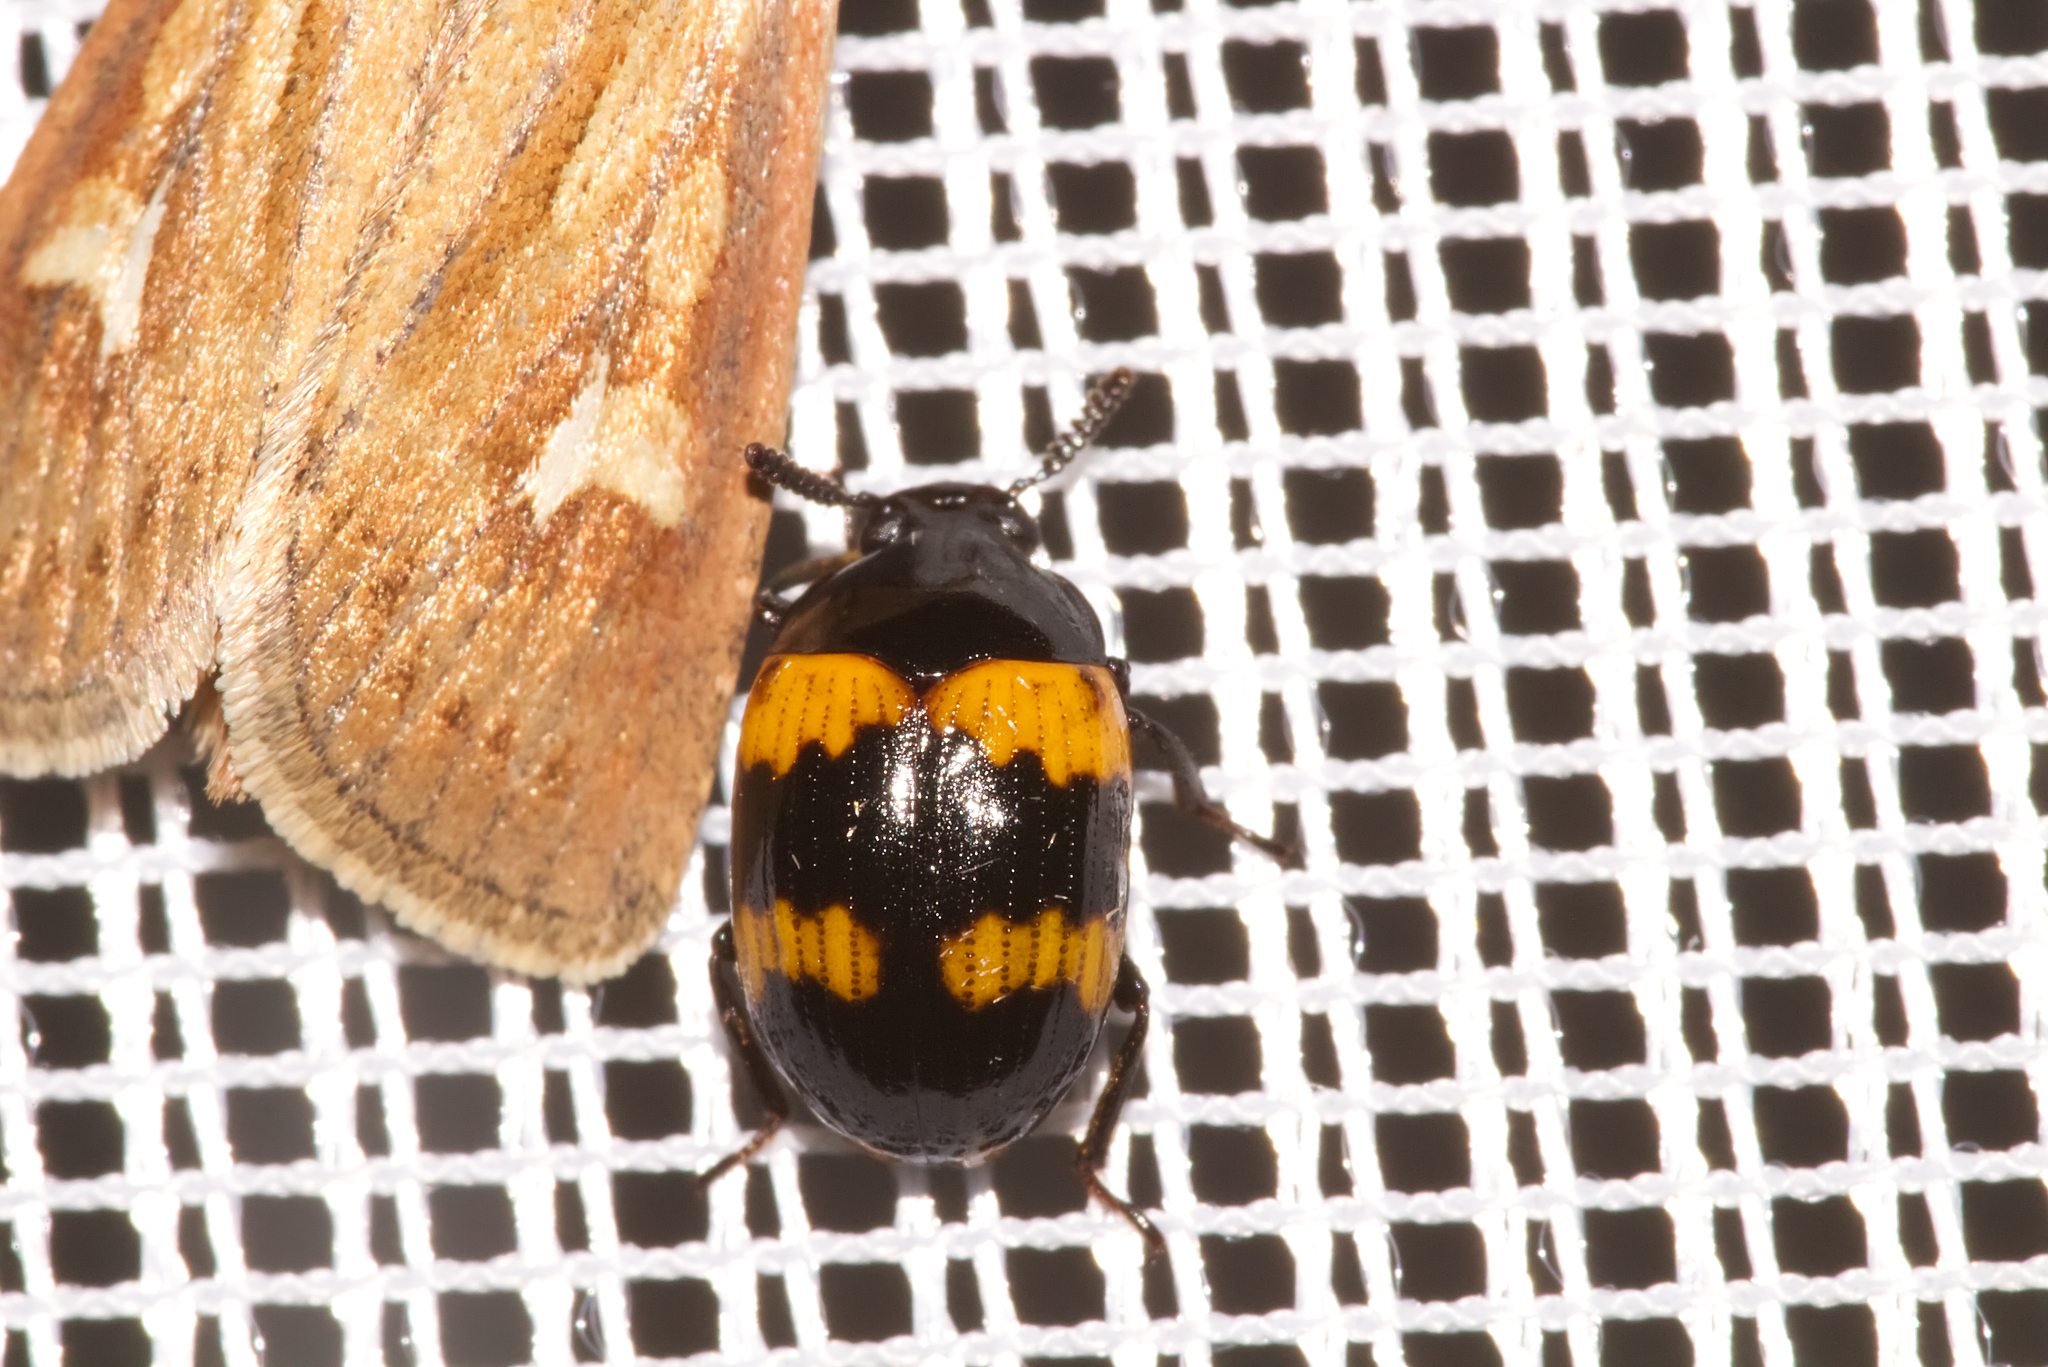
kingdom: Animalia
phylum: Arthropoda
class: Insecta
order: Coleoptera
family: Tenebrionidae
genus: Diaperis
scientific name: Diaperis boleti
